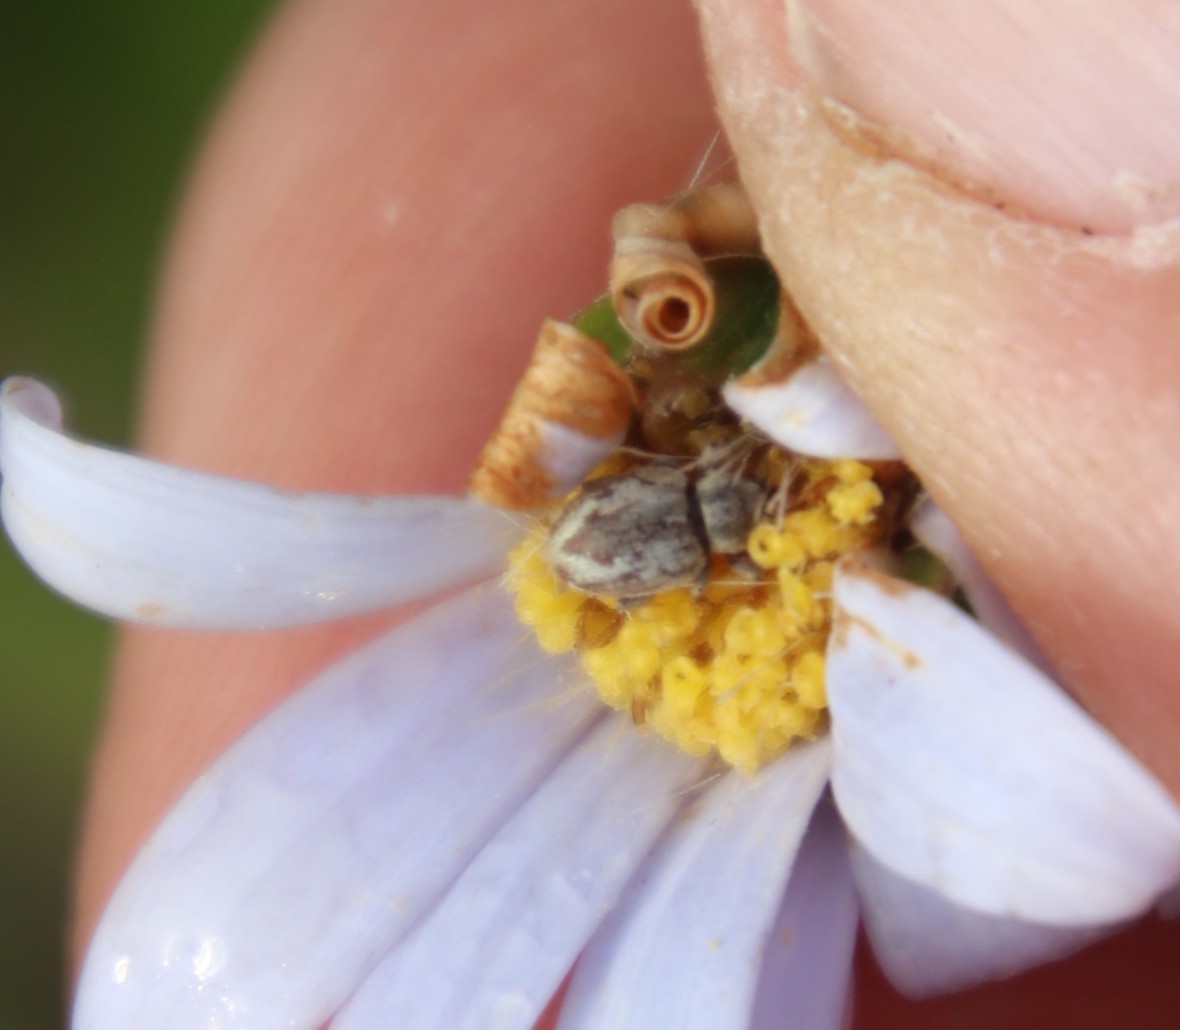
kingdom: Animalia
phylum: Arthropoda
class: Insecta
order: Coleoptera
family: Curculionidae
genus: Ellimenistes
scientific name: Ellimenistes laesicollis
